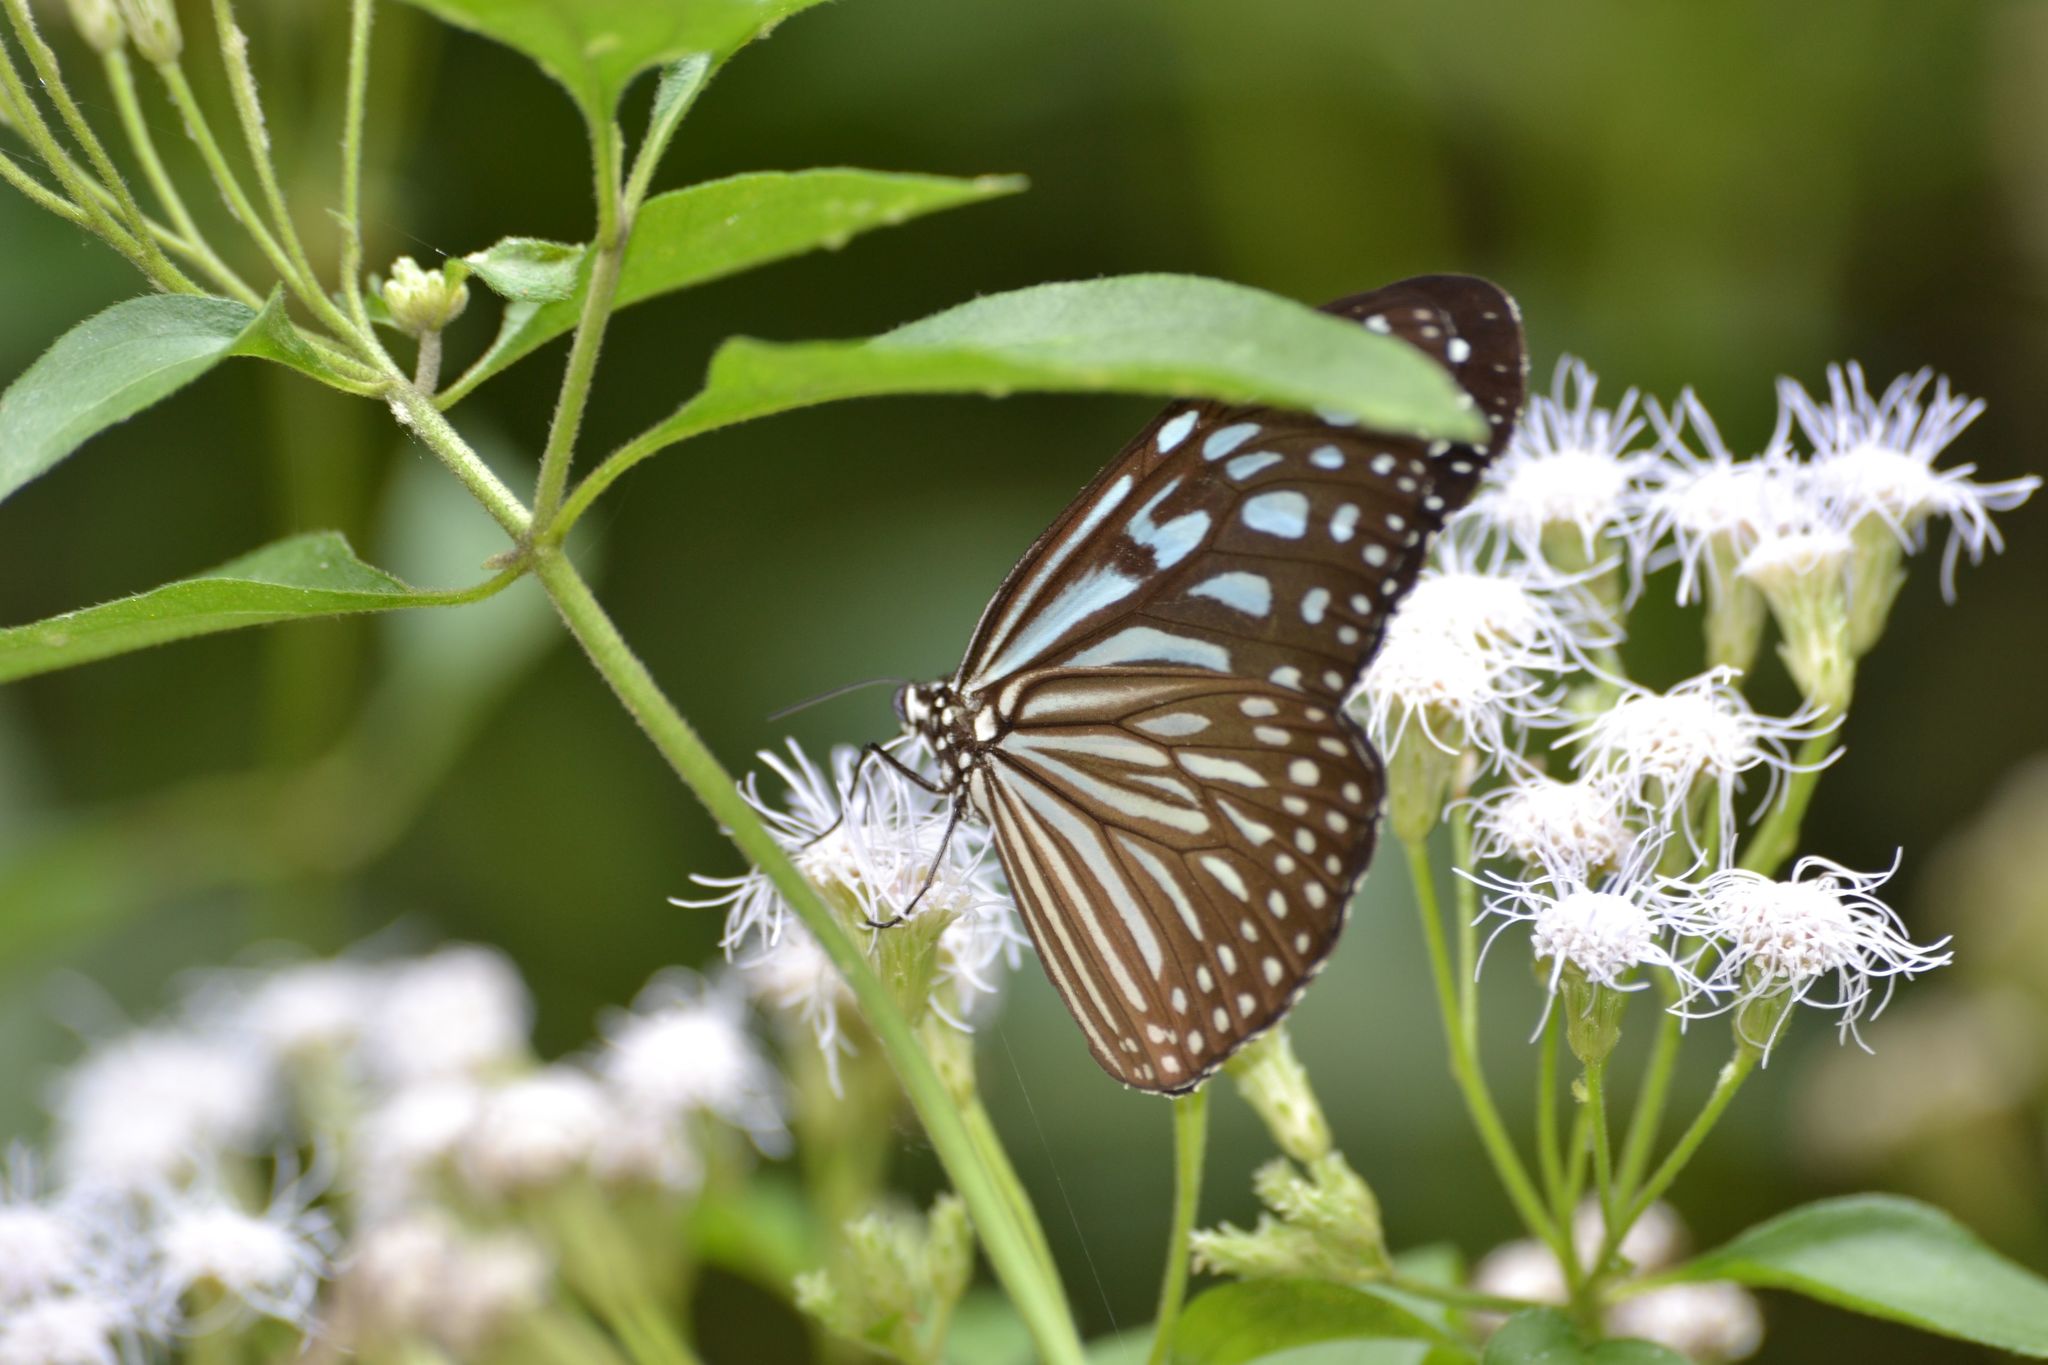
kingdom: Animalia
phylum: Arthropoda
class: Insecta
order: Lepidoptera
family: Nymphalidae
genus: Ideopsis
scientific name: Ideopsis vulgaris
